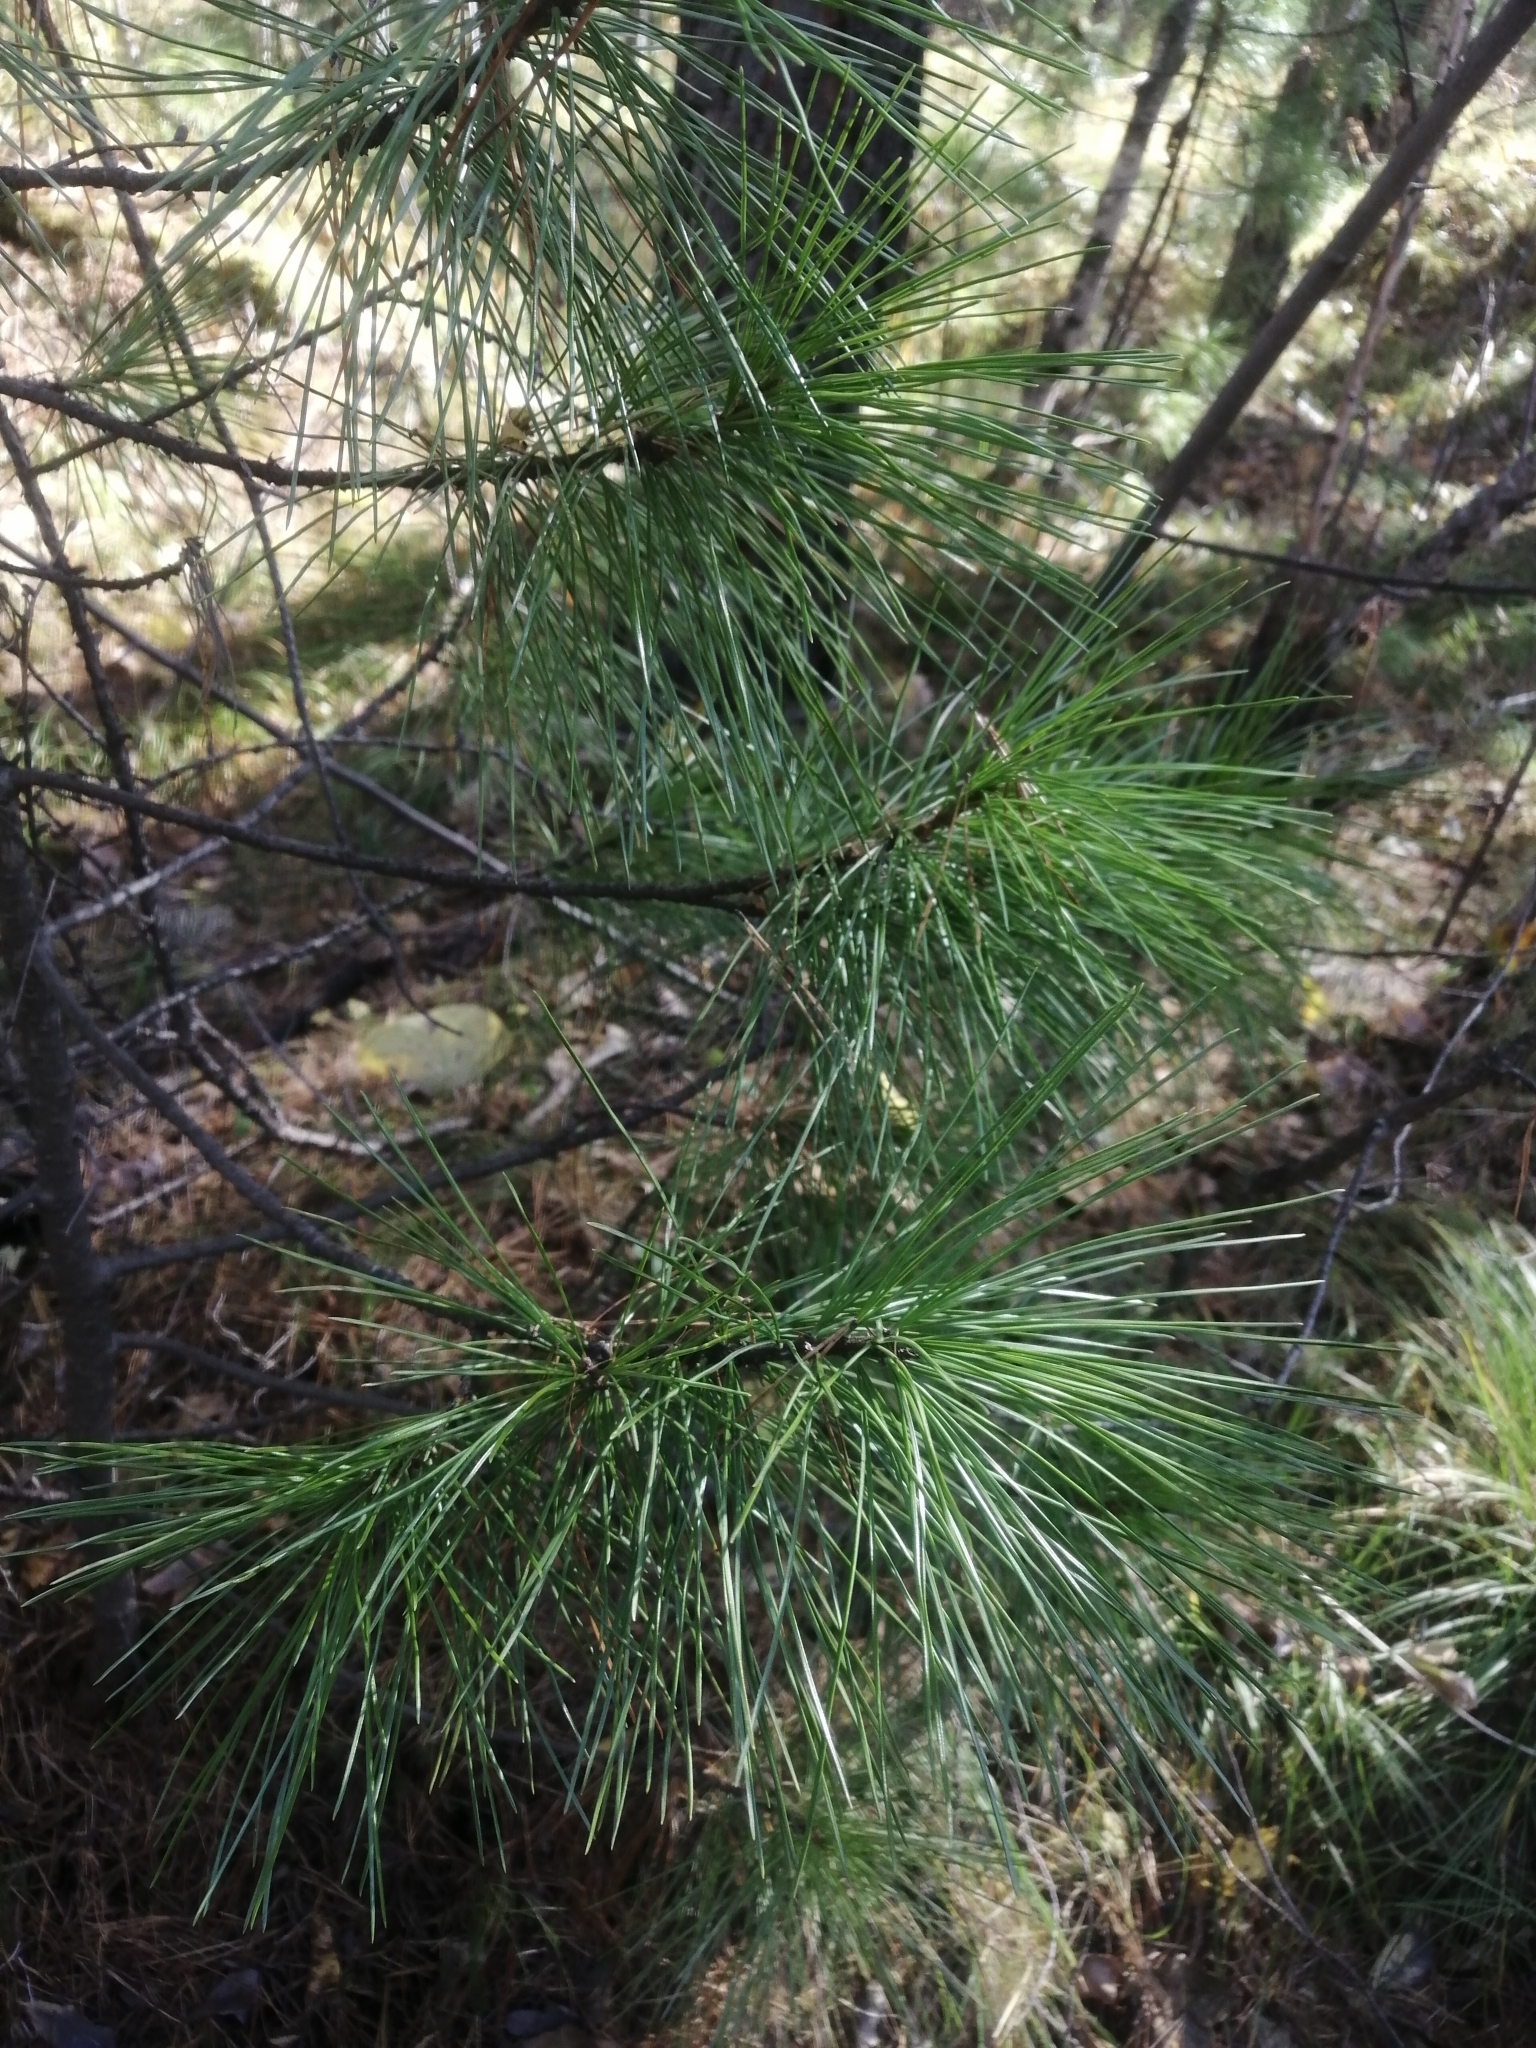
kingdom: Plantae
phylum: Tracheophyta
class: Pinopsida
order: Pinales
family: Pinaceae
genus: Pinus
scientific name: Pinus sibirica
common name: Siberian pine
